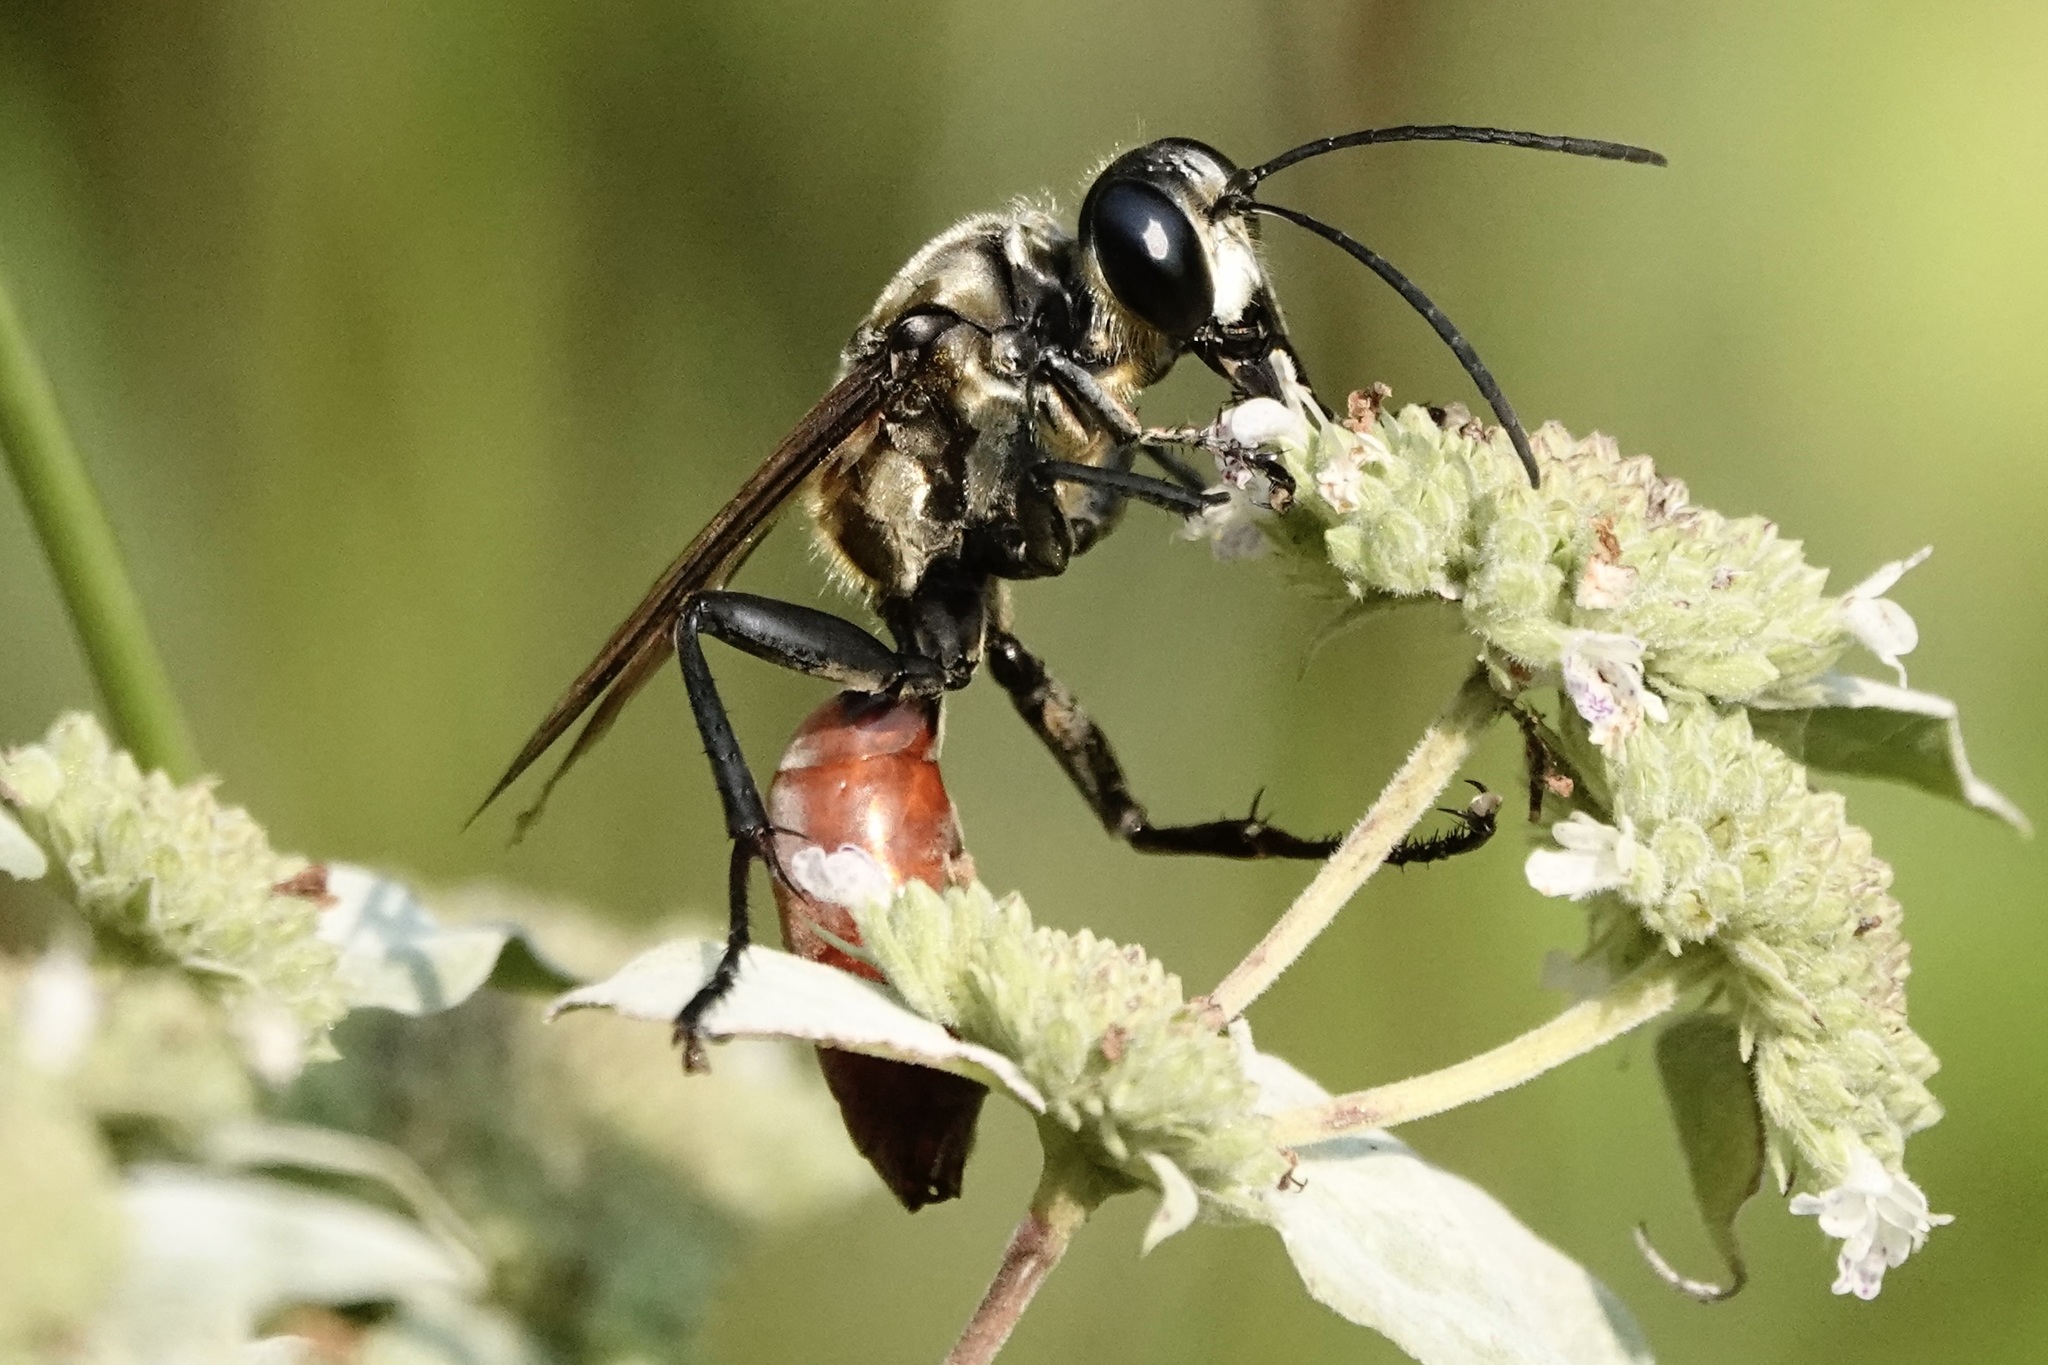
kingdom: Animalia
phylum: Arthropoda
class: Insecta
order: Hymenoptera
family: Sphecidae
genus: Sphex
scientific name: Sphex habenus
